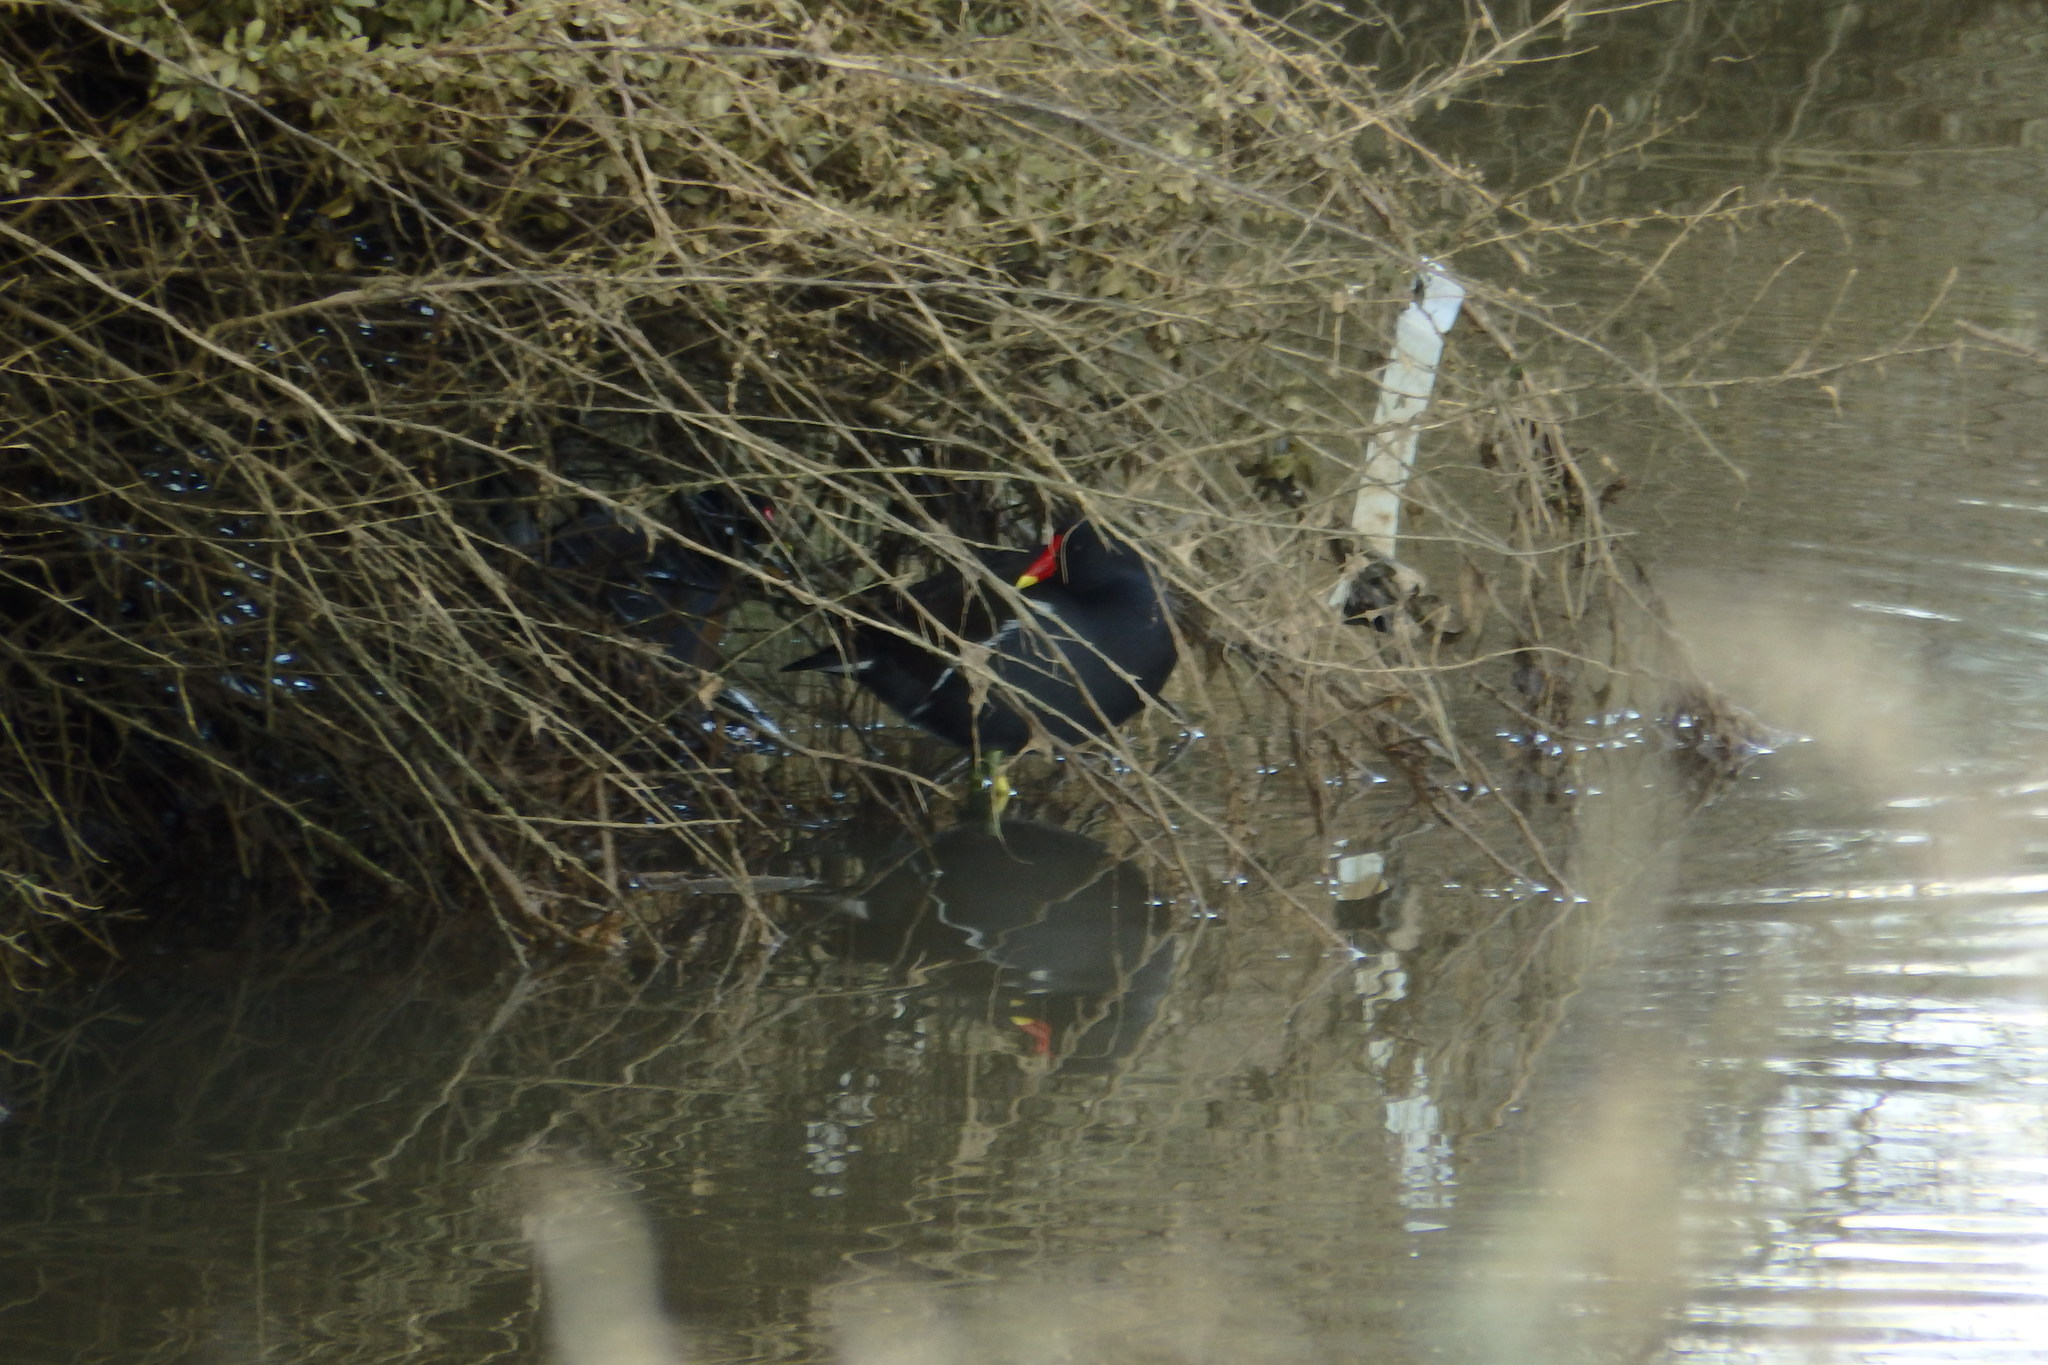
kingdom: Animalia
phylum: Chordata
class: Aves
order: Gruiformes
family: Rallidae
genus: Gallinula
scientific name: Gallinula chloropus
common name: Common moorhen
